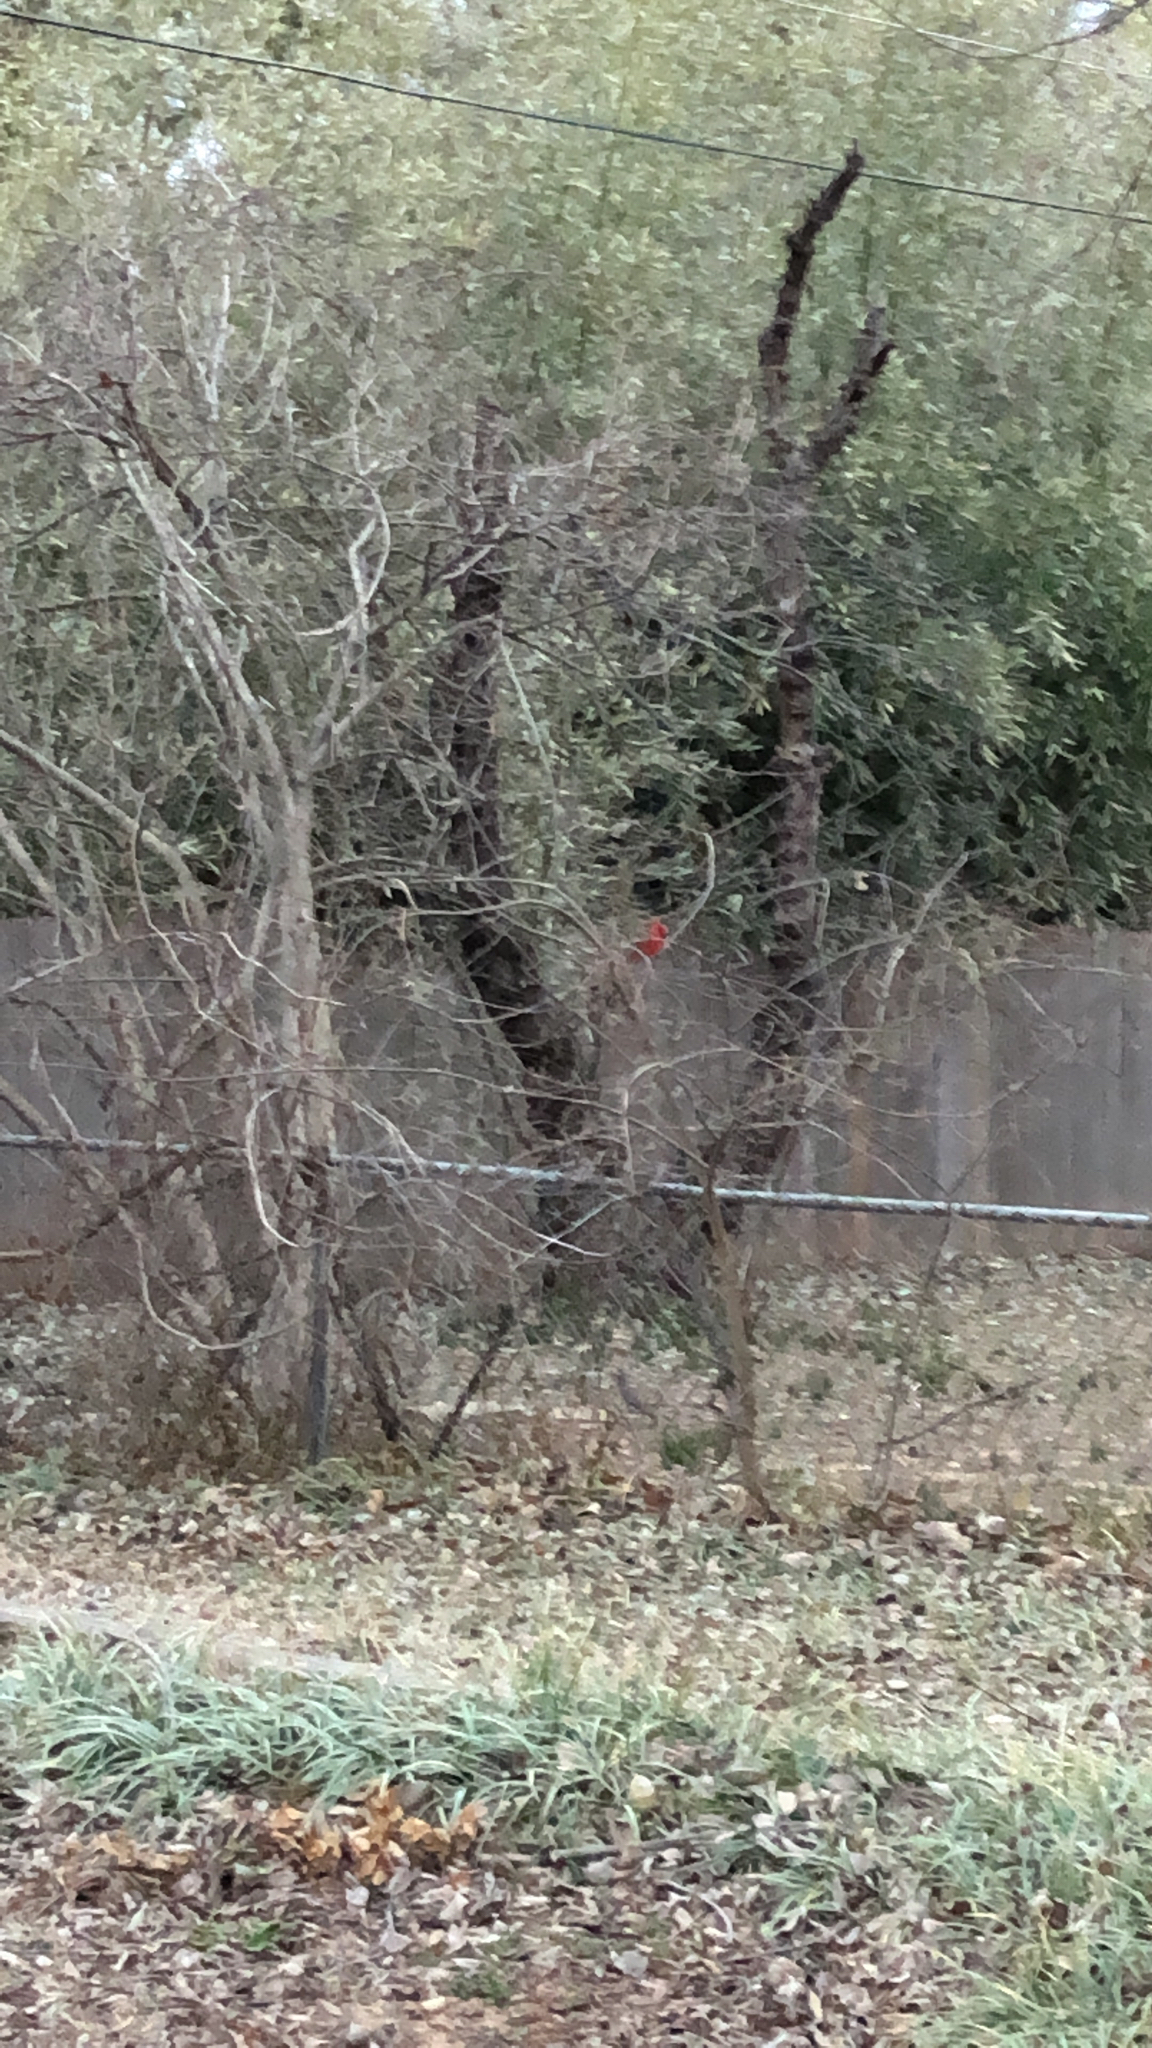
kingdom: Animalia
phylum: Chordata
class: Aves
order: Passeriformes
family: Cardinalidae
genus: Cardinalis
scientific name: Cardinalis cardinalis
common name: Northern cardinal
